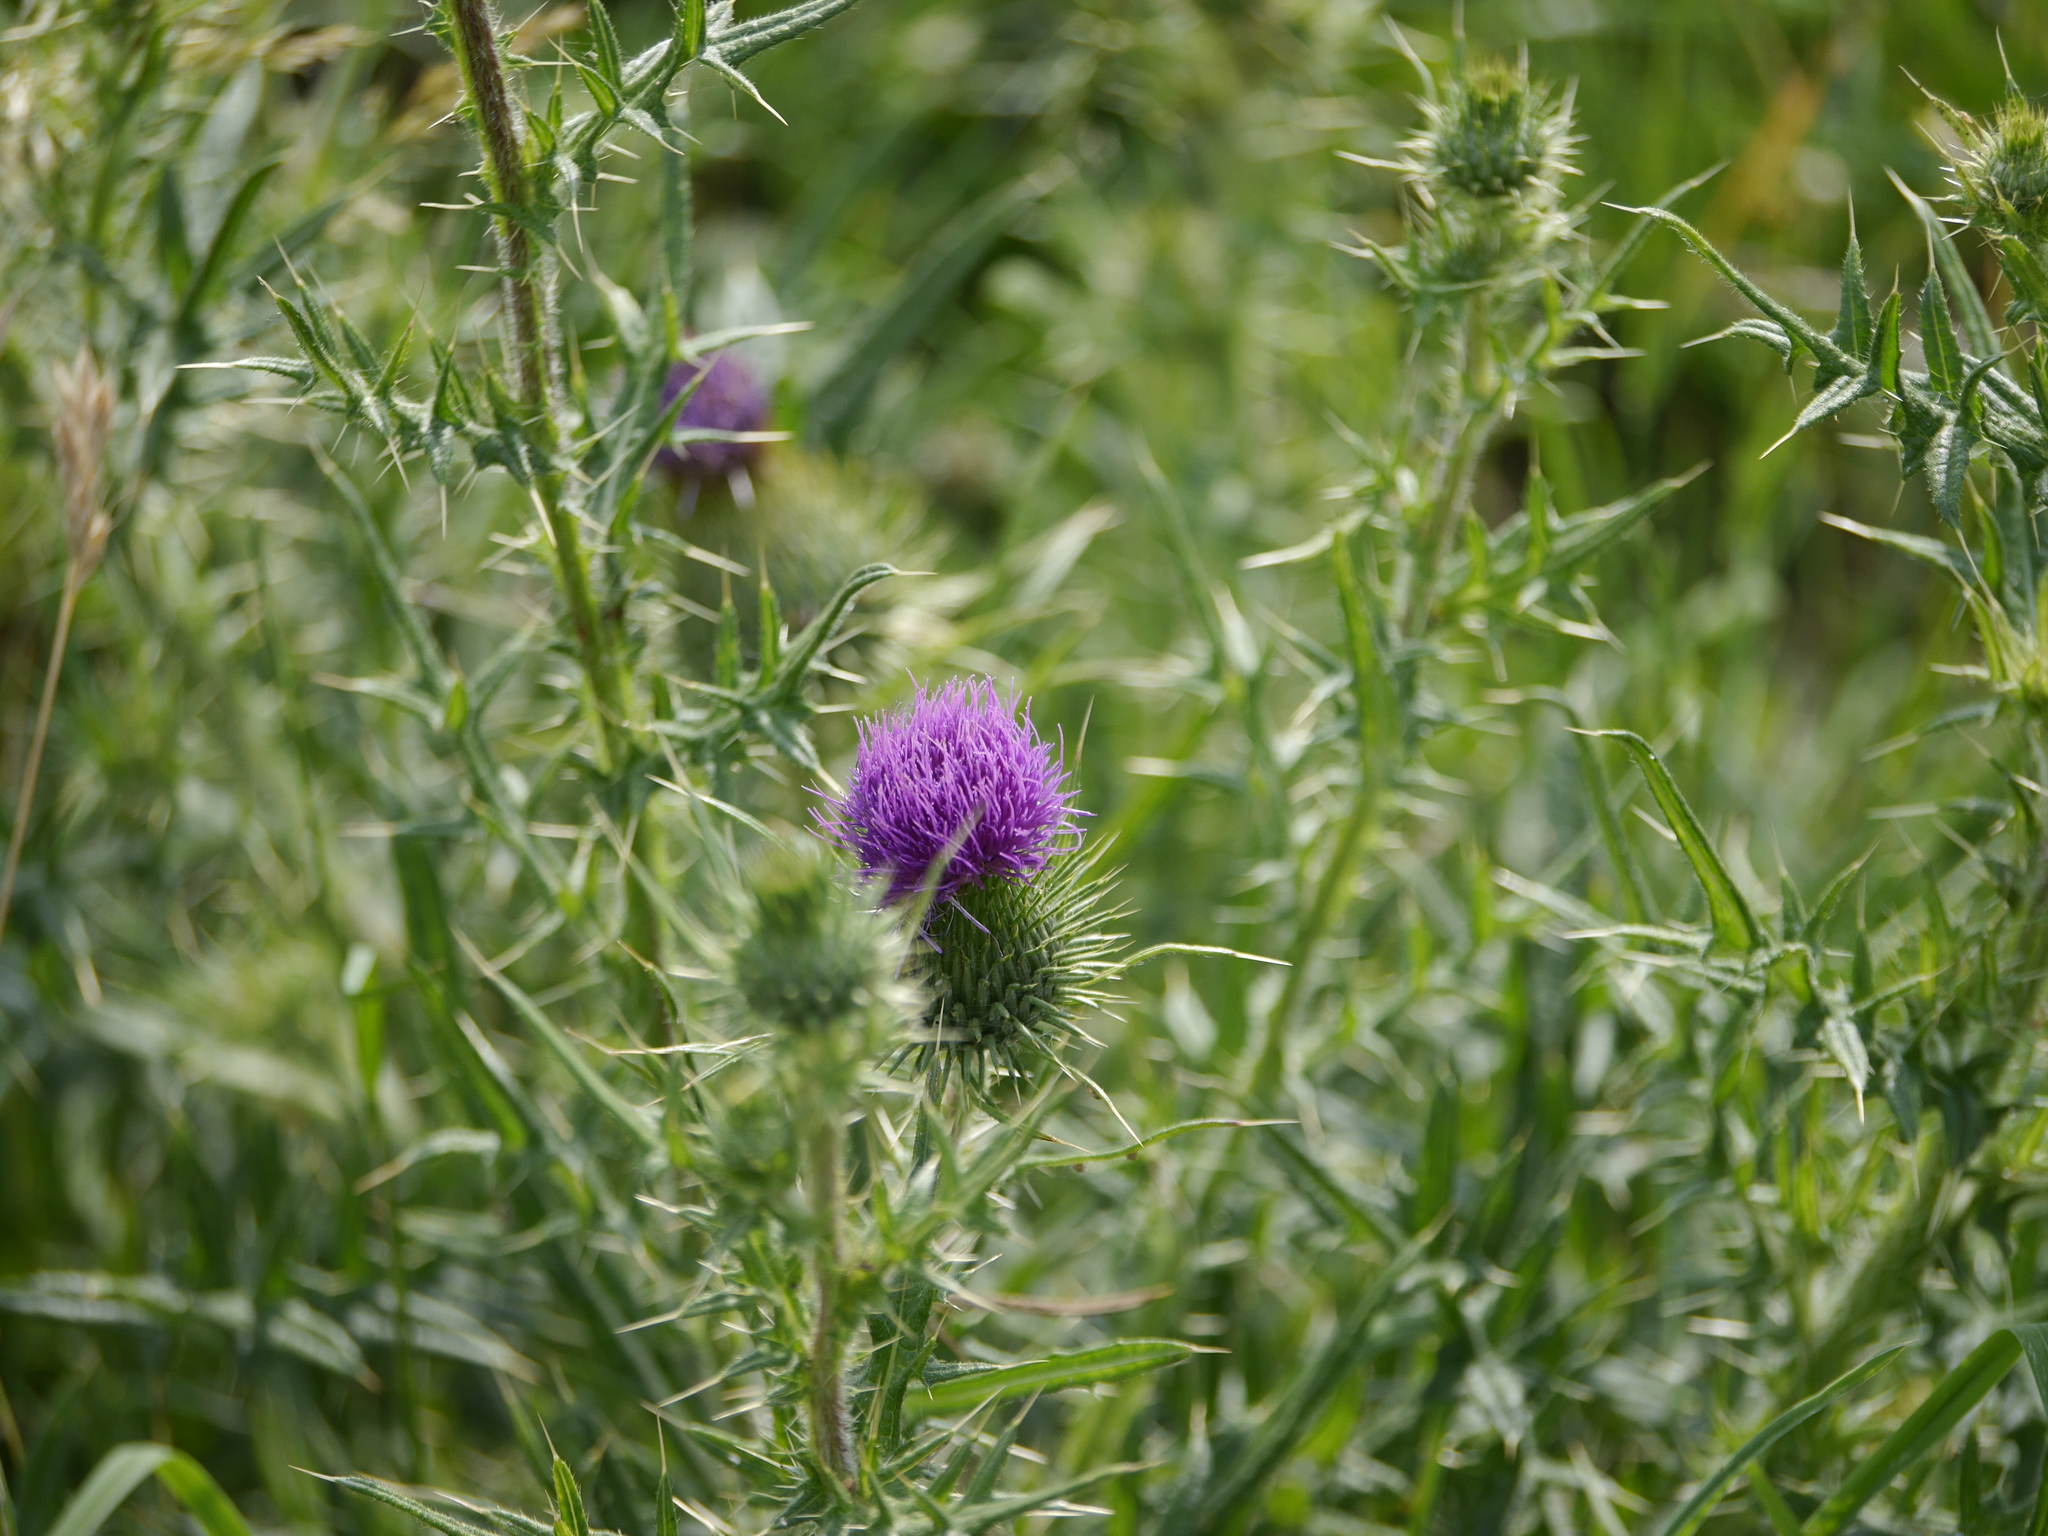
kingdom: Plantae
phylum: Tracheophyta
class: Magnoliopsida
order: Asterales
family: Asteraceae
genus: Cirsium
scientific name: Cirsium vulgare
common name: Bull thistle
